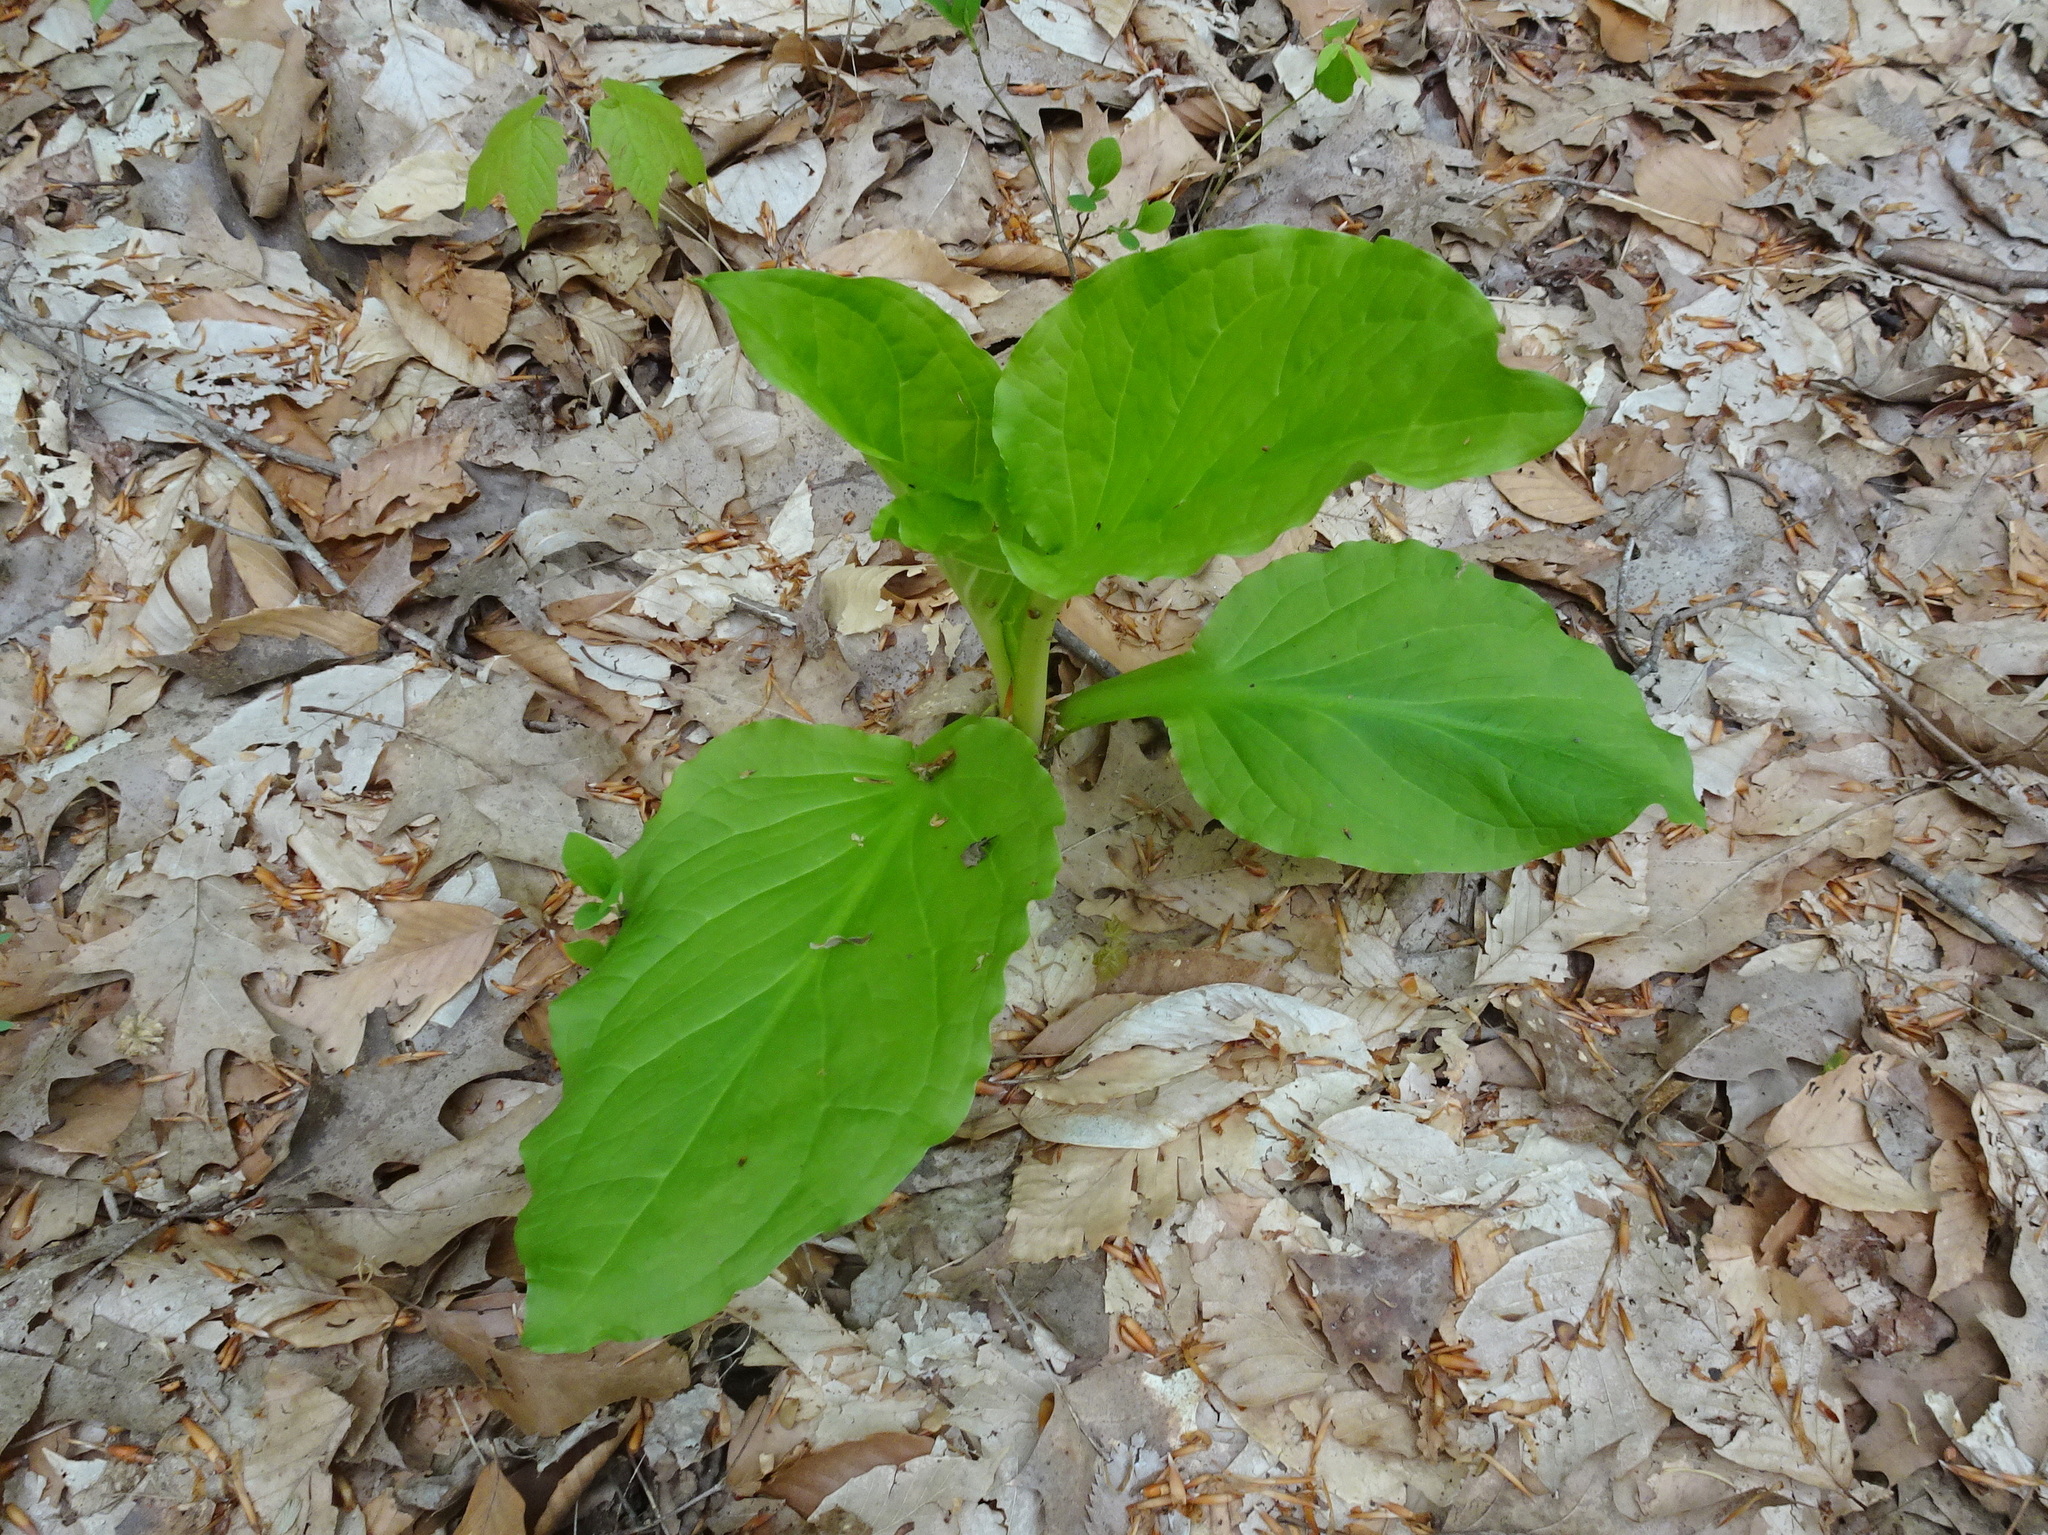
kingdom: Plantae
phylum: Tracheophyta
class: Liliopsida
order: Alismatales
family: Araceae
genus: Symplocarpus
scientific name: Symplocarpus foetidus
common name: Eastern skunk cabbage
